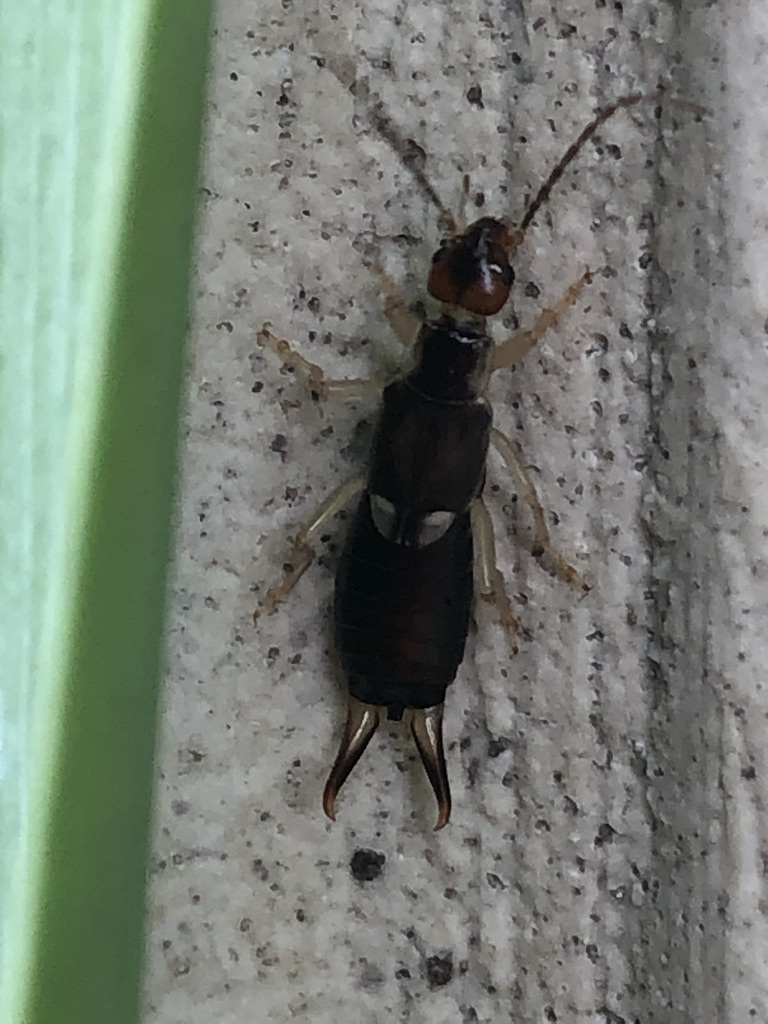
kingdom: Animalia
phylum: Arthropoda
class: Insecta
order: Dermaptera
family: Forficulidae
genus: Forficula
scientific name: Forficula
